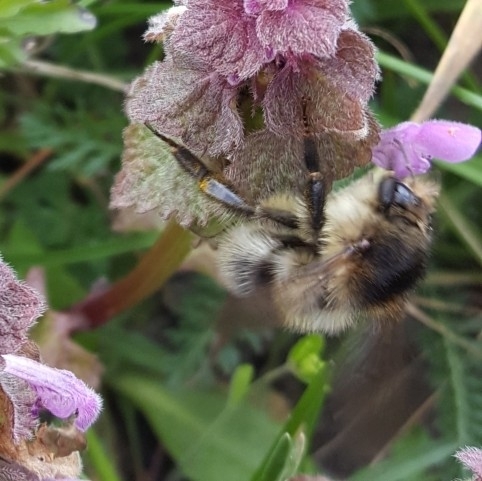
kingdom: Animalia
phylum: Arthropoda
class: Insecta
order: Hymenoptera
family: Apidae
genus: Bombus
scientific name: Bombus pascuorum
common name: Common carder bee
